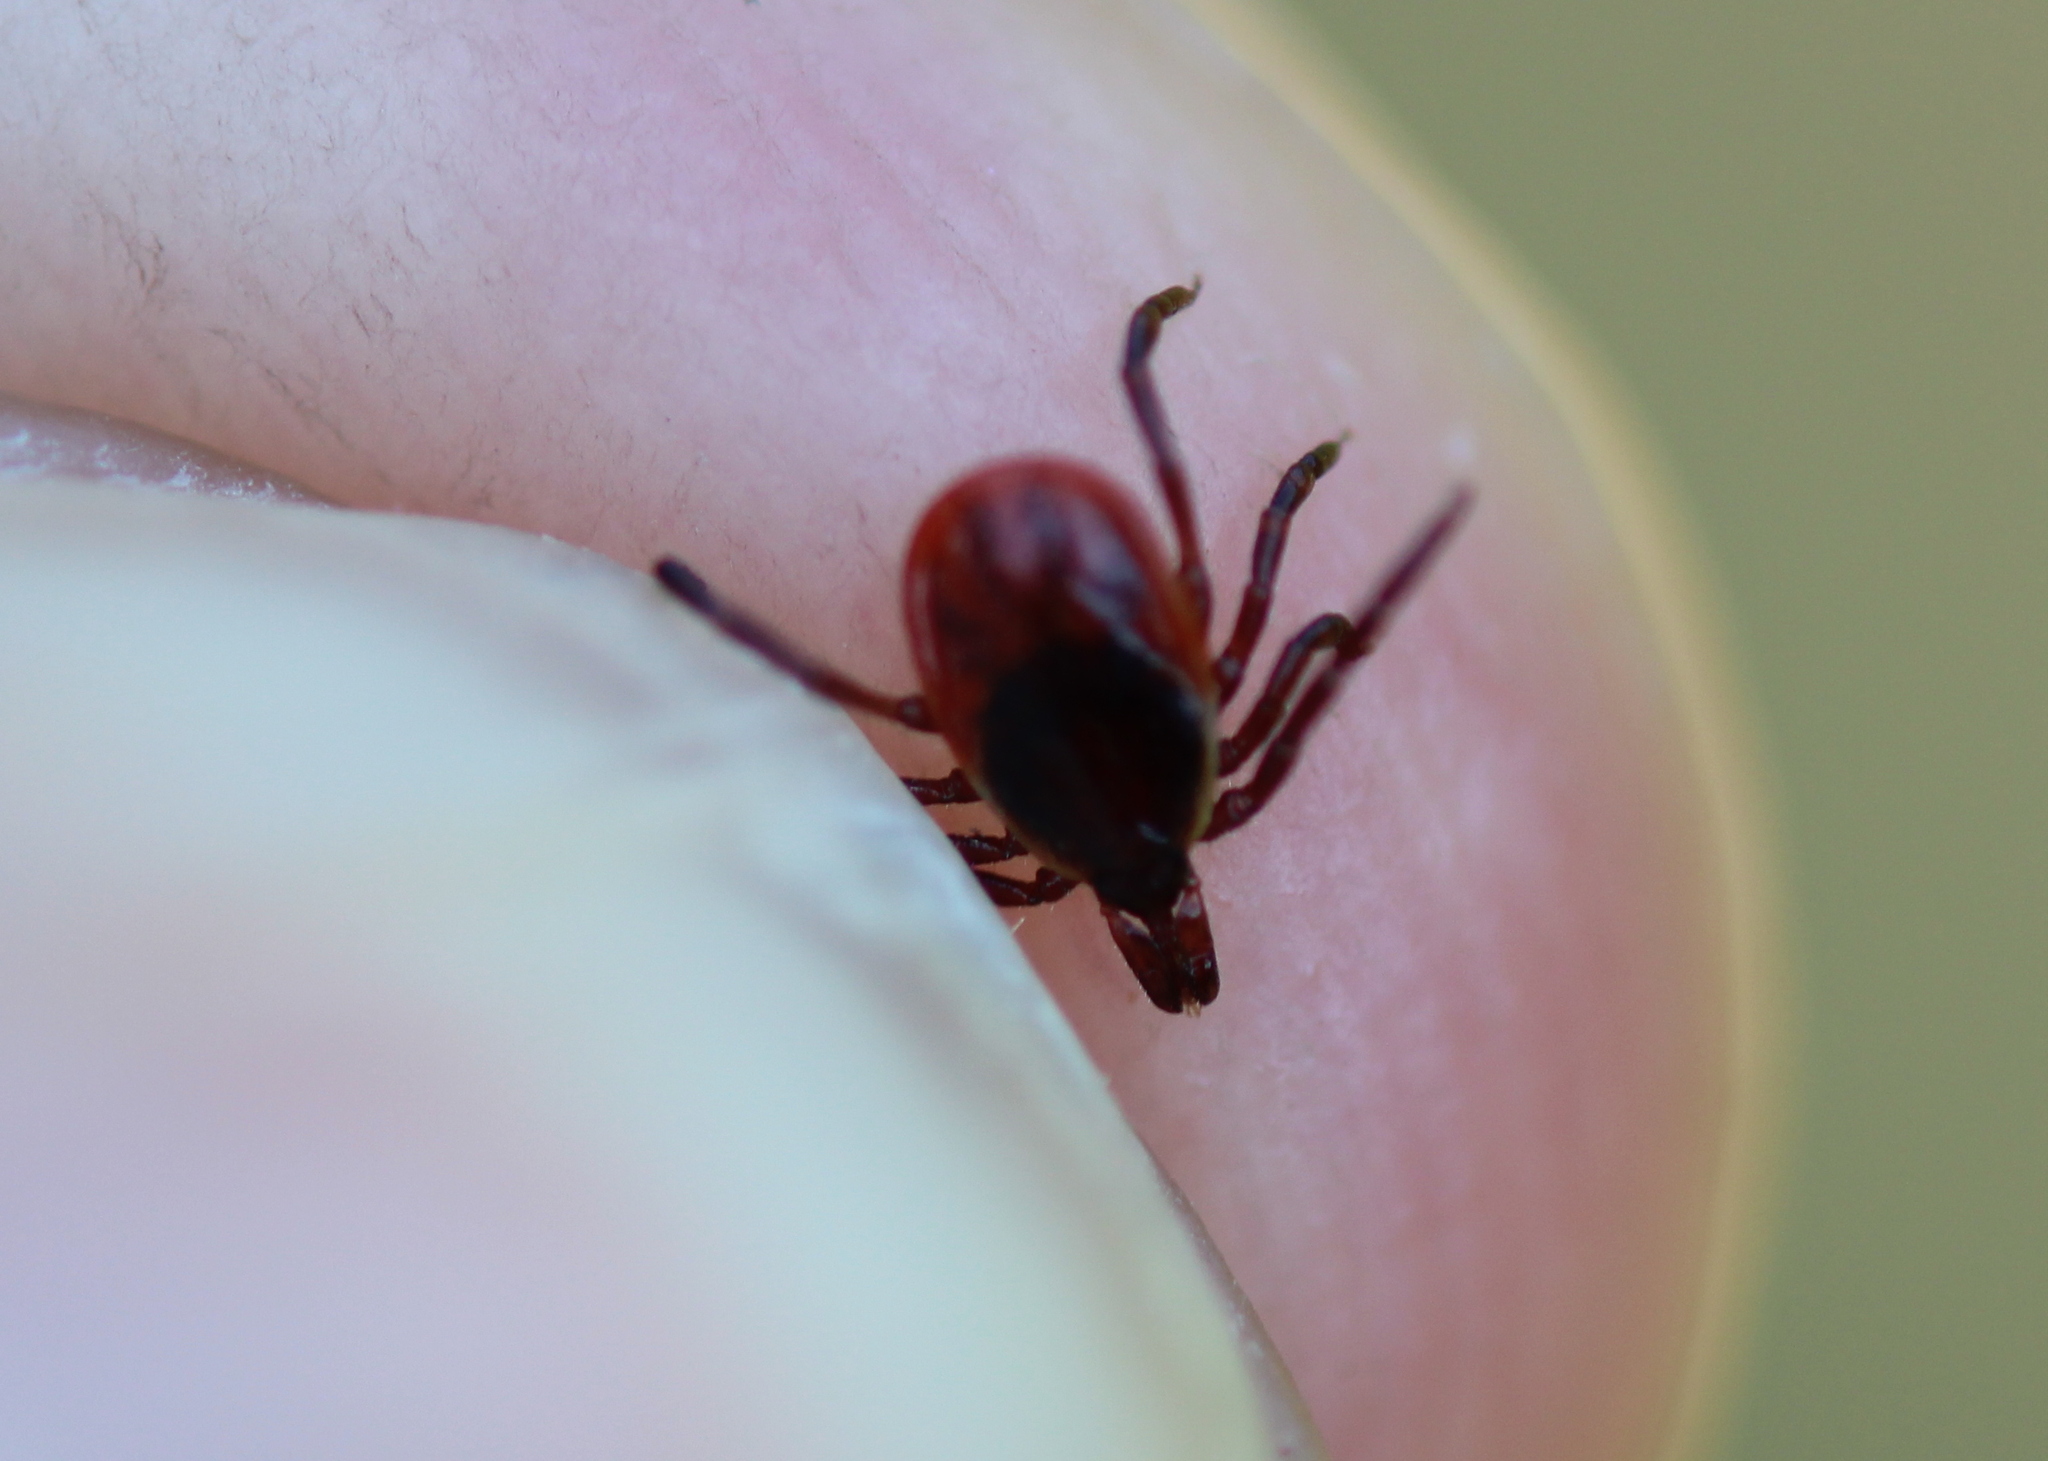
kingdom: Animalia
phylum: Arthropoda
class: Arachnida
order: Ixodida
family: Ixodidae
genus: Ixodes
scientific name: Ixodes scapularis
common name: Black legged tick
